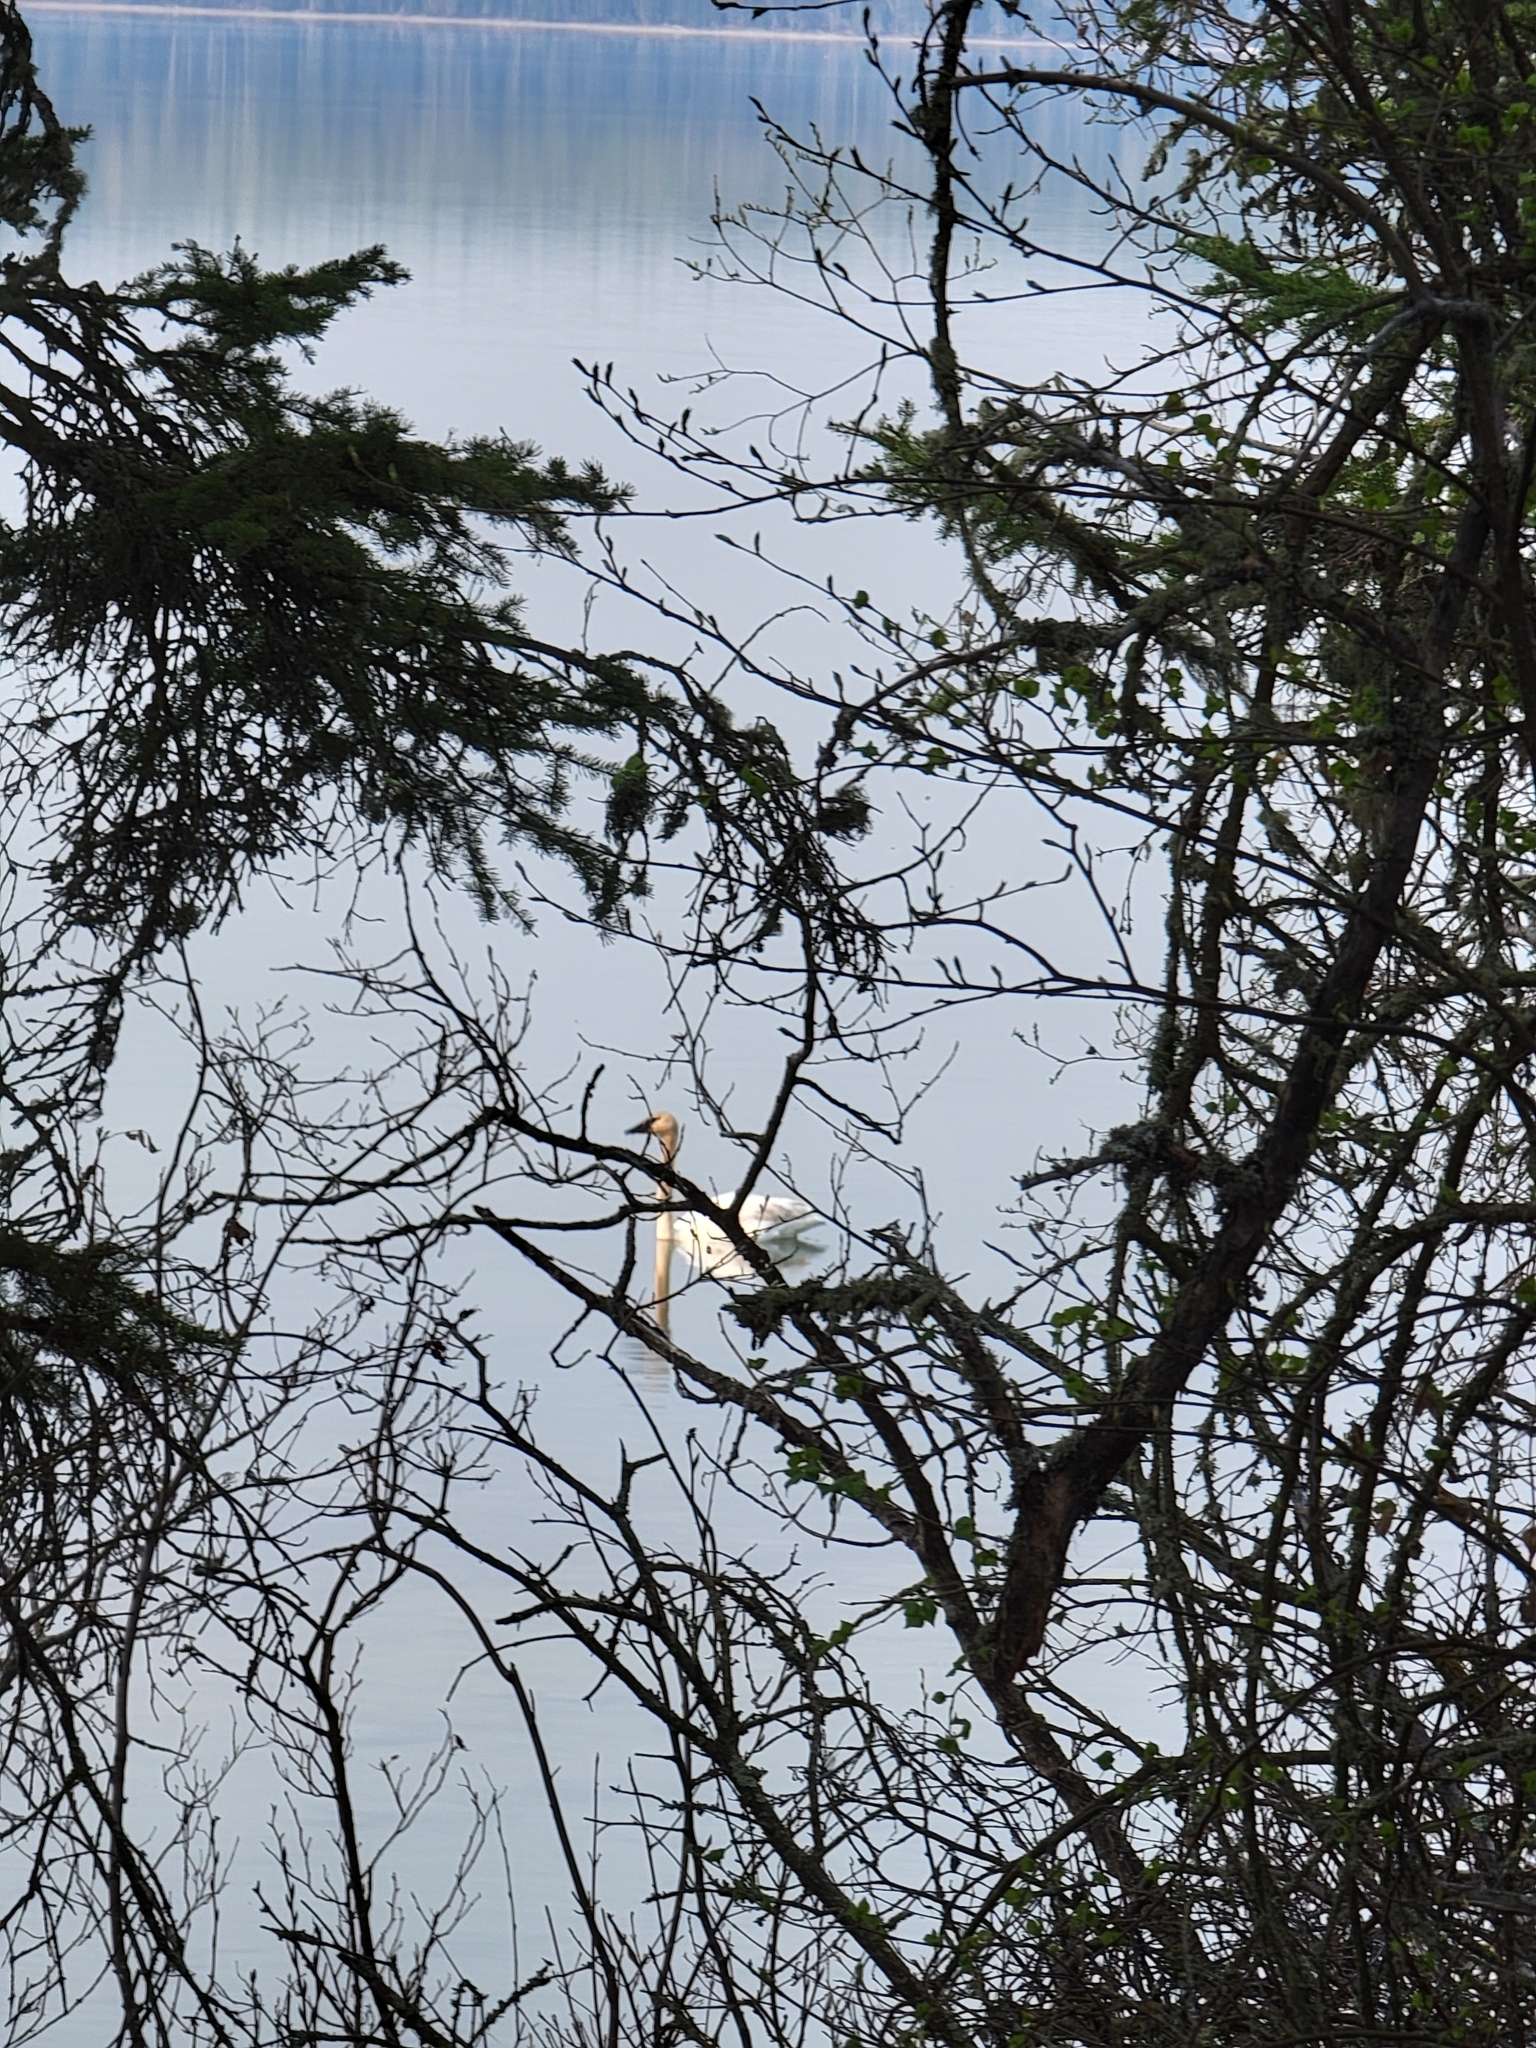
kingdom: Animalia
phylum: Chordata
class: Aves
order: Anseriformes
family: Anatidae
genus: Cygnus
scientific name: Cygnus buccinator
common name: Trumpeter swan
